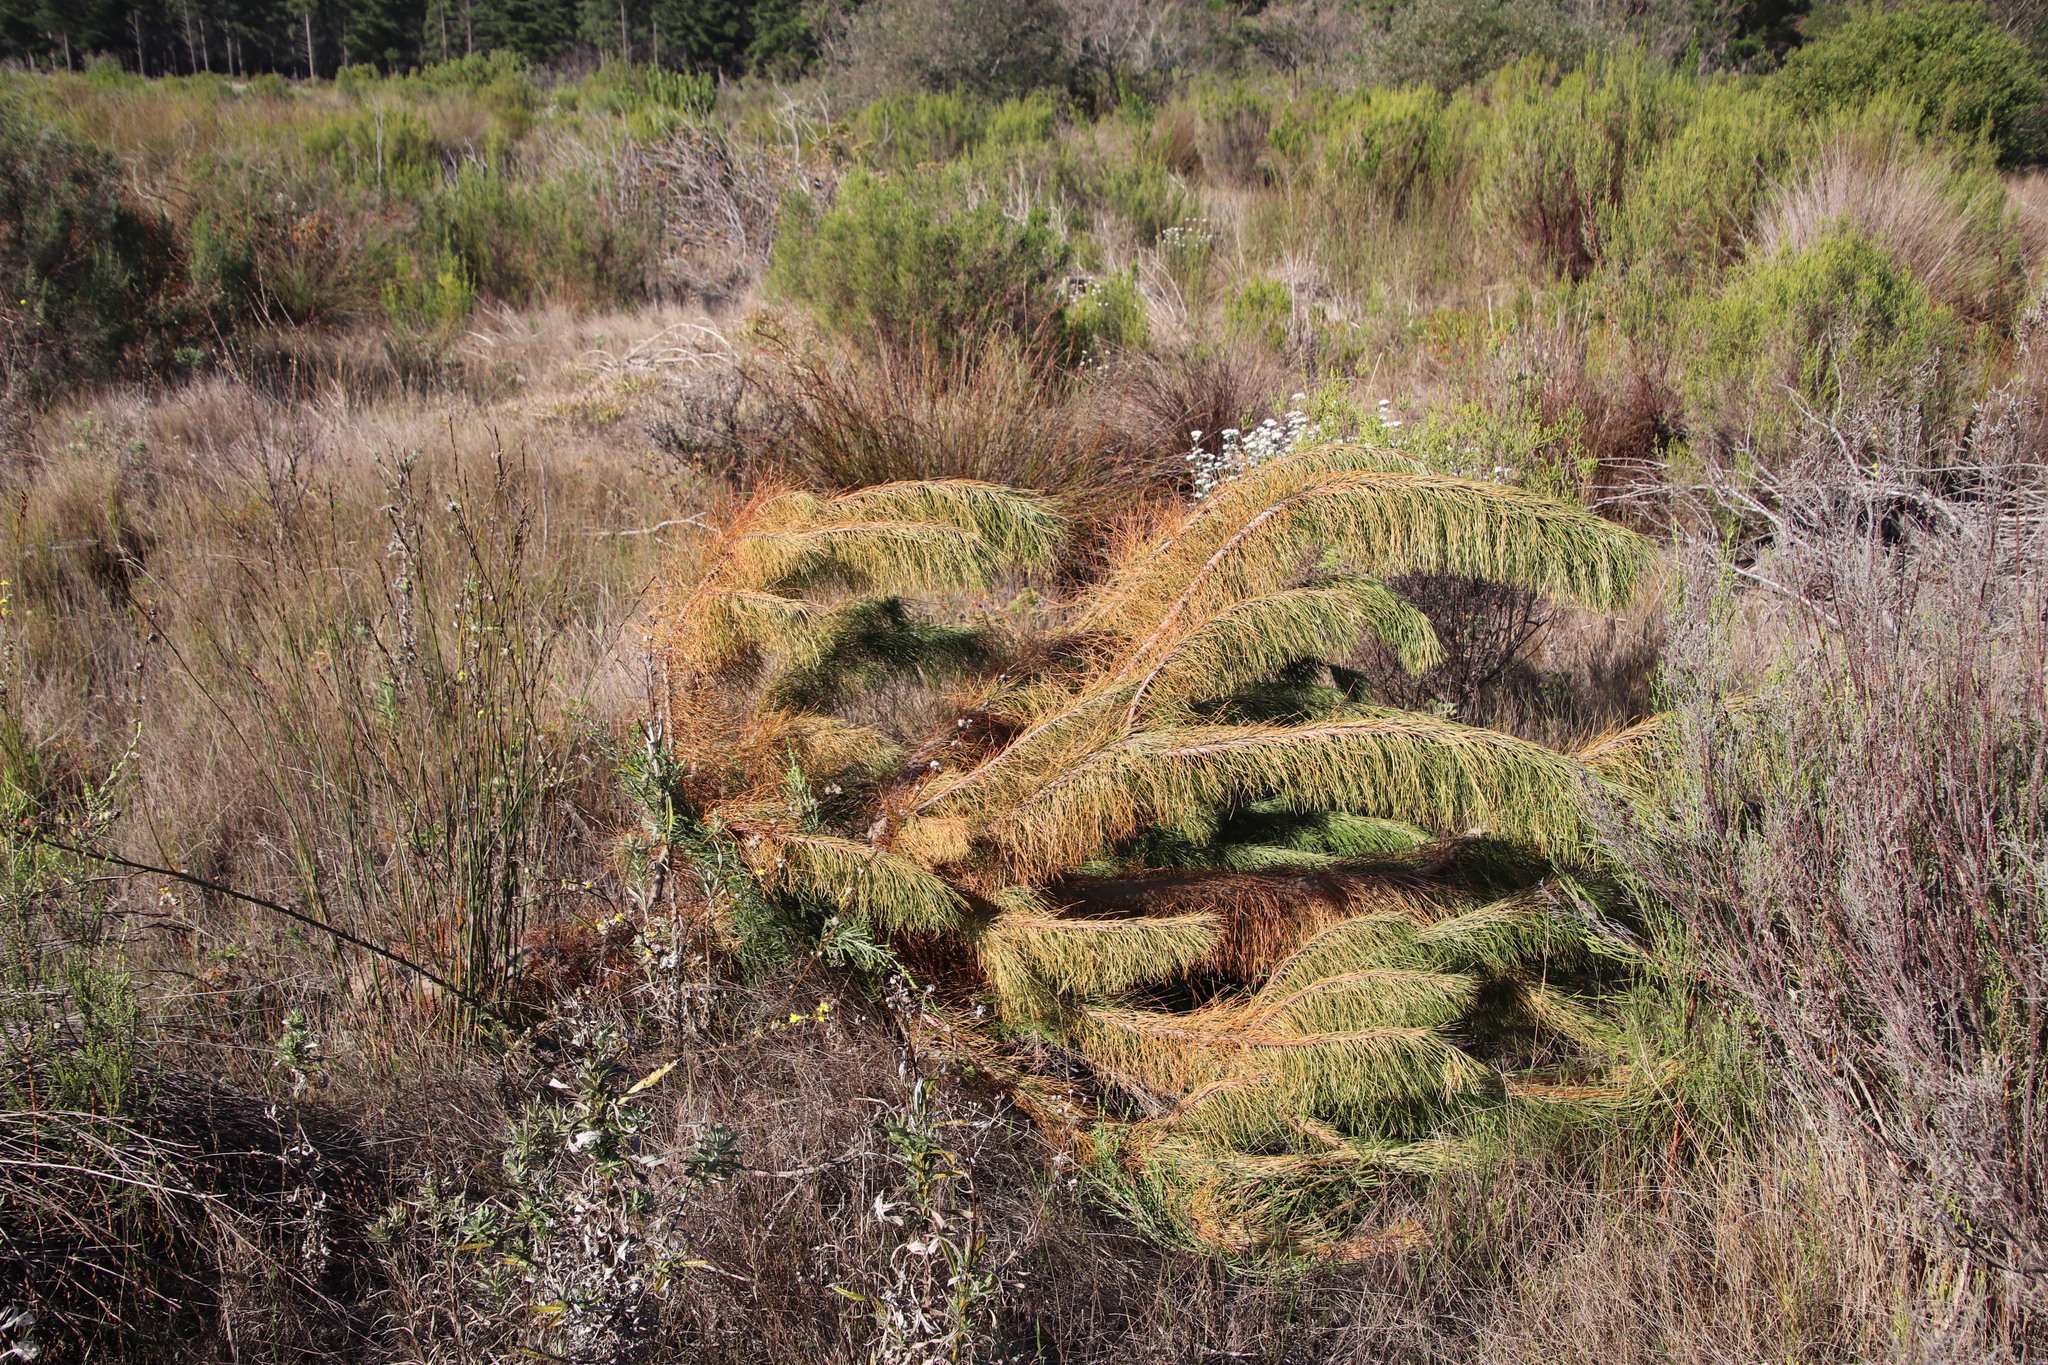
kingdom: Plantae
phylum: Tracheophyta
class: Pinopsida
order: Pinales
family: Pinaceae
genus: Pinus
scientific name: Pinus radiata
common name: Monterey pine
